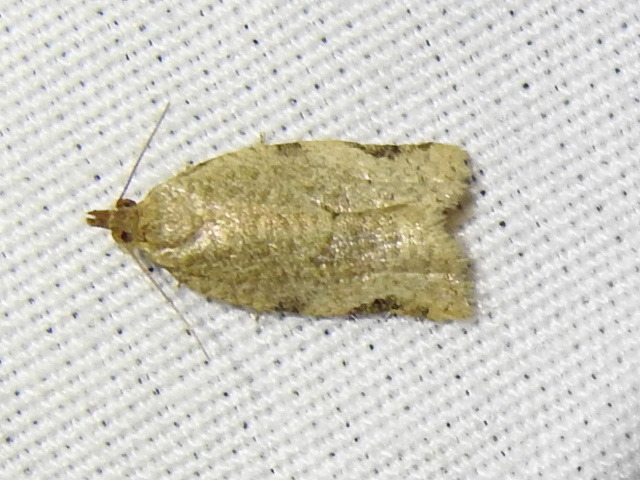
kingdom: Animalia
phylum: Arthropoda
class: Insecta
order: Lepidoptera
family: Tortricidae
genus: Clepsis
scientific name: Clepsis virescana
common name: Greenish apple moth
